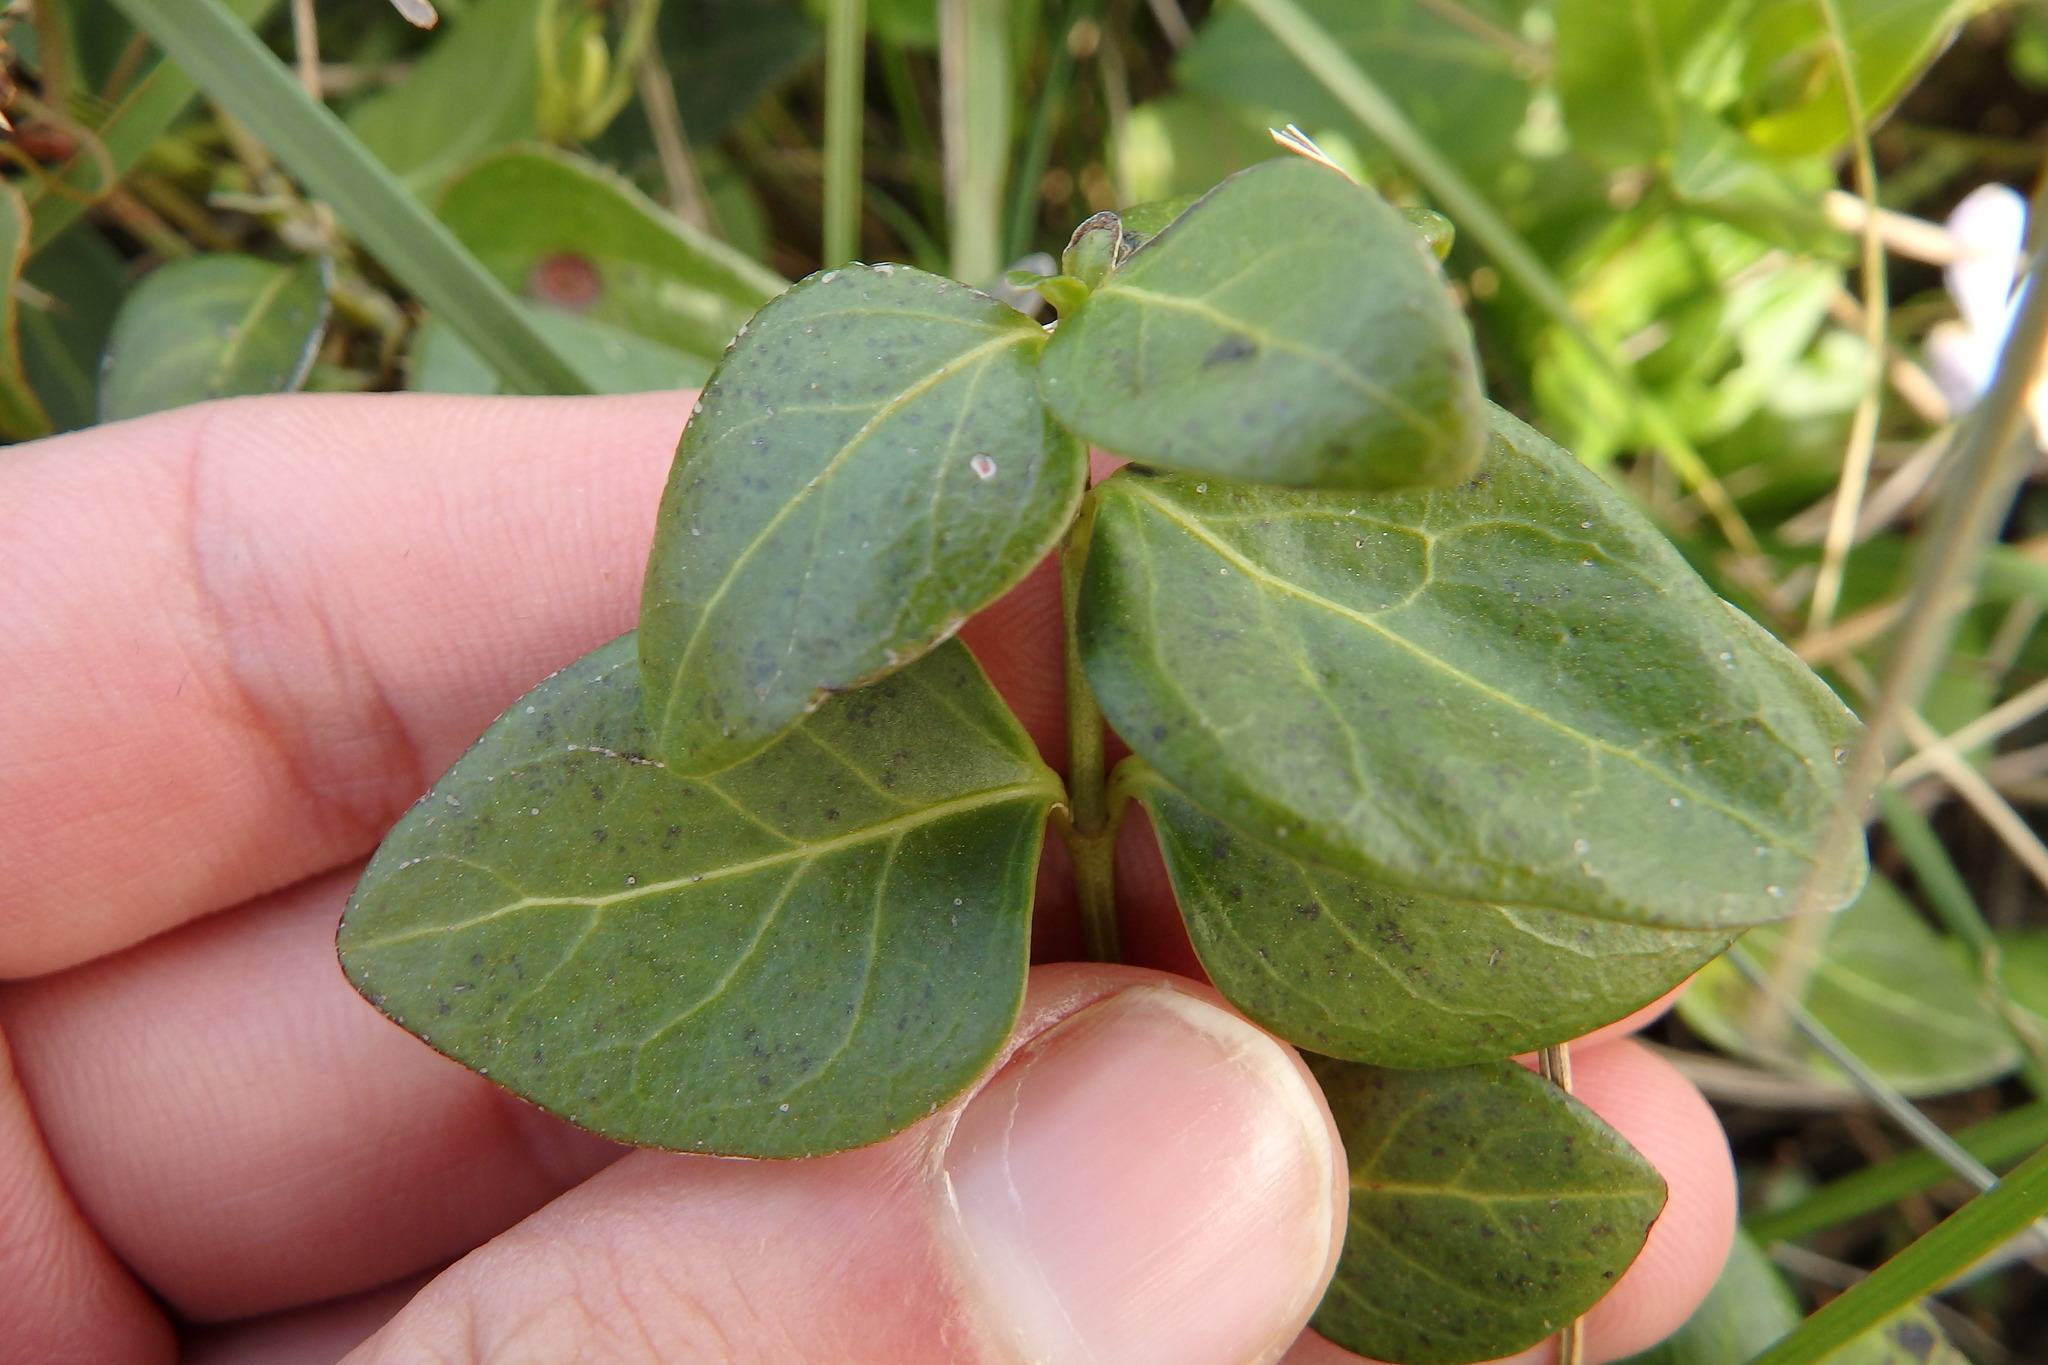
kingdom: Plantae
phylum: Tracheophyta
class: Magnoliopsida
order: Gentianales
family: Apocynaceae
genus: Vinca
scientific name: Vinca difformis
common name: Intermediate periwinkle
